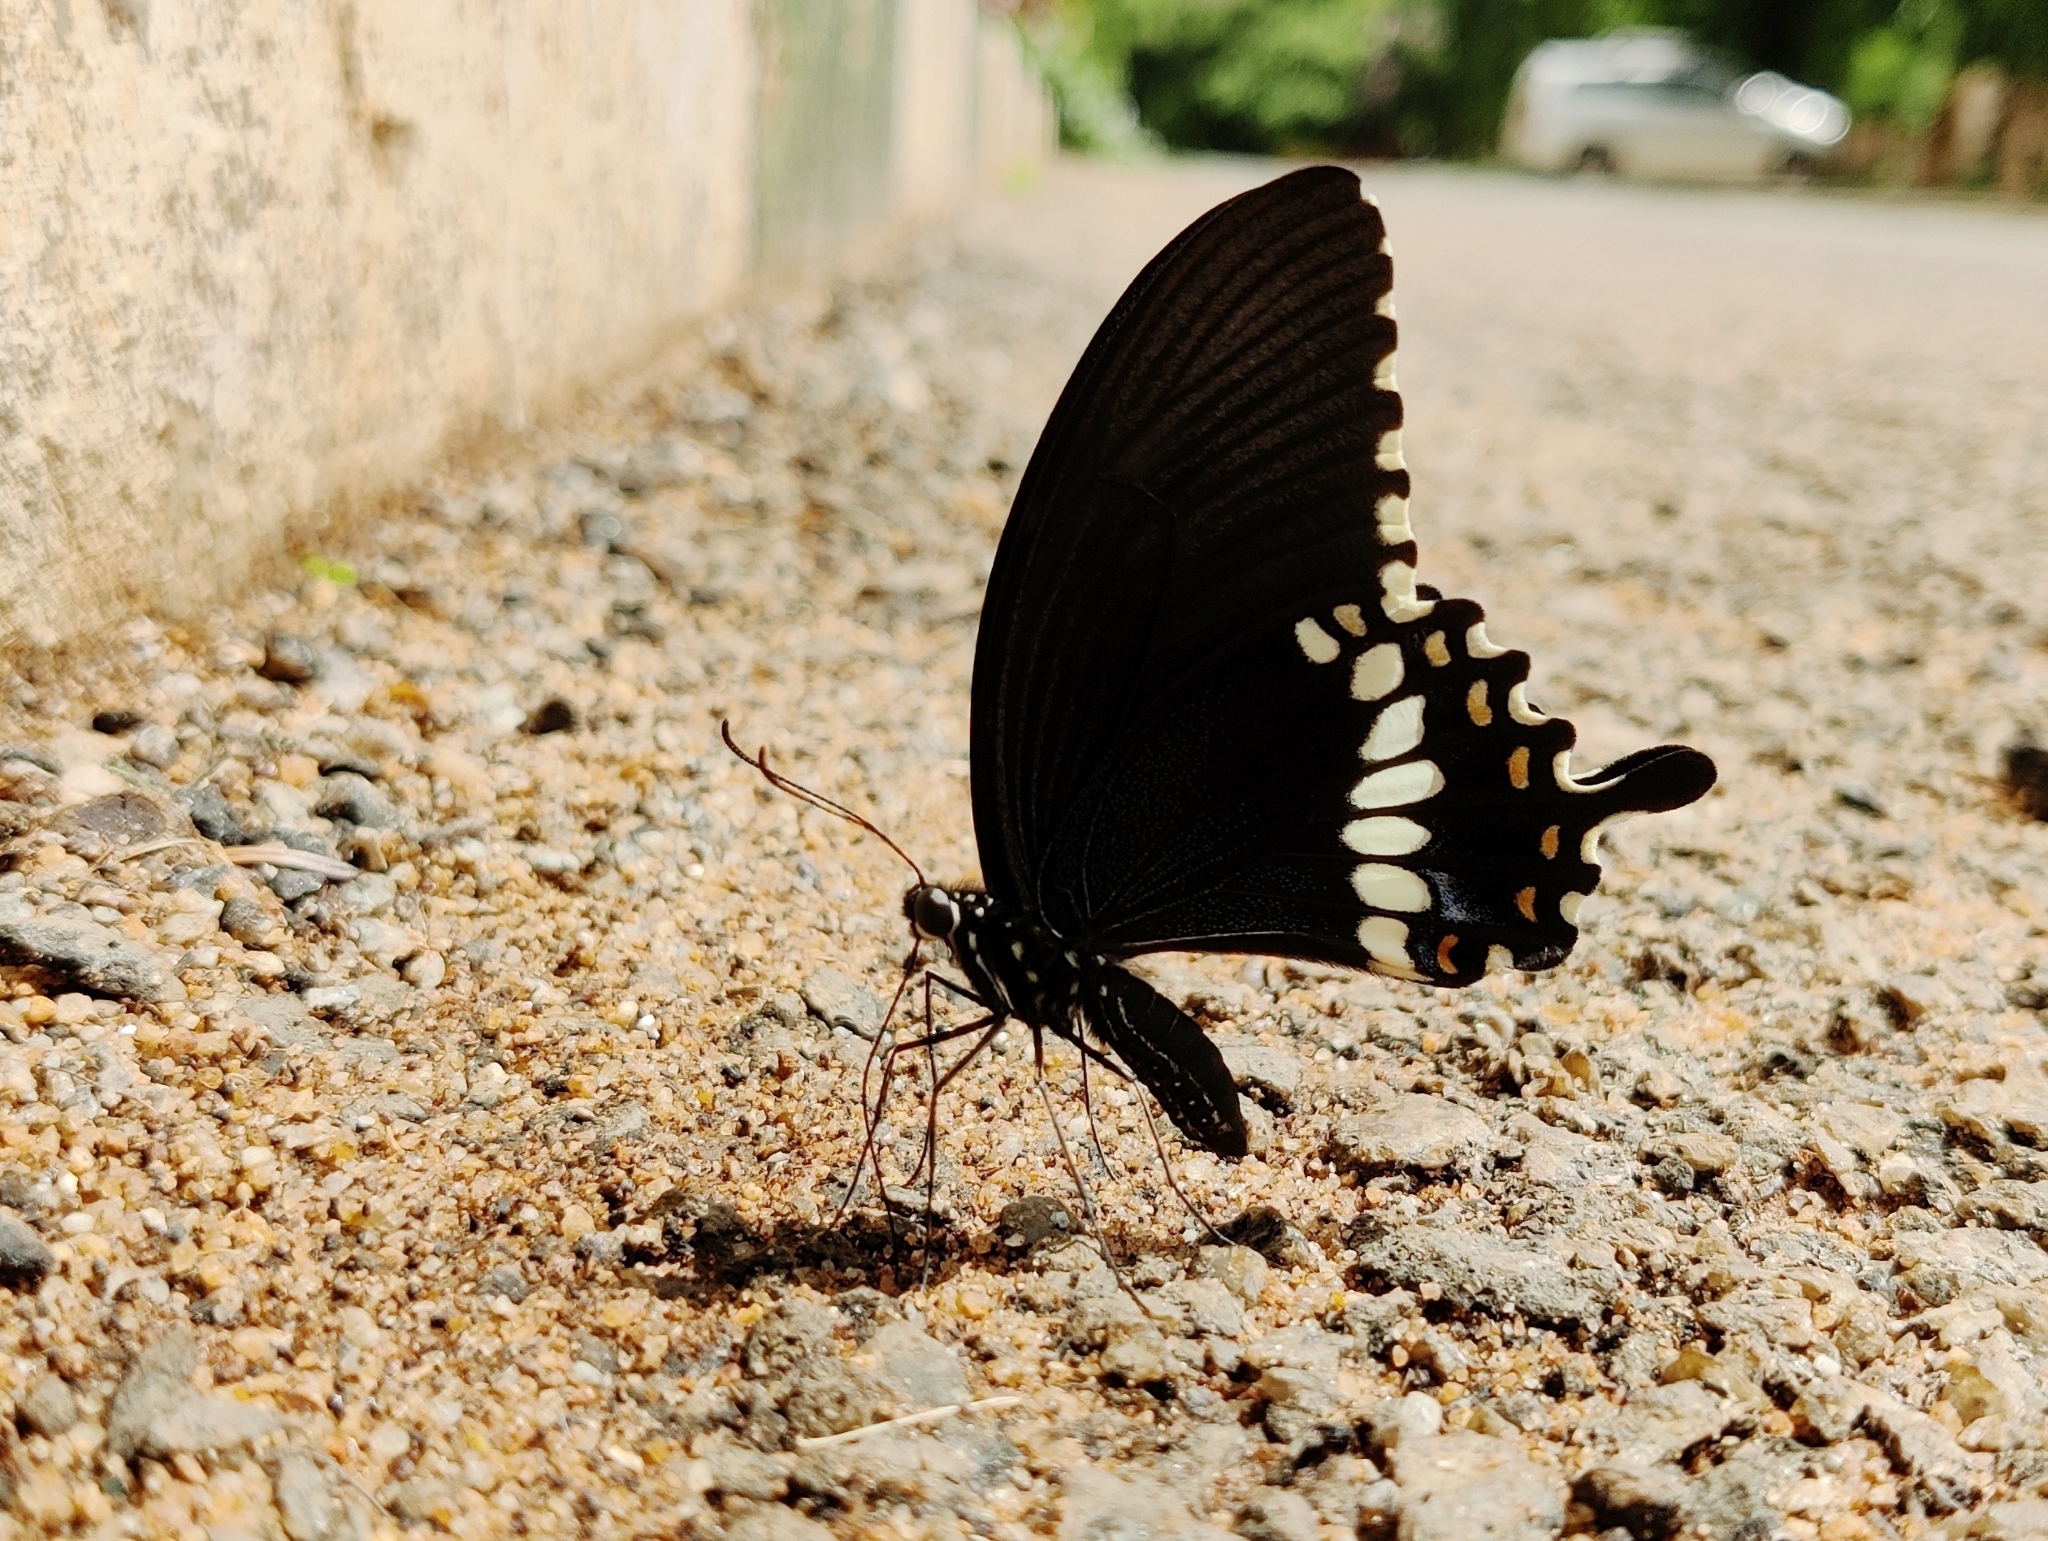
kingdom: Animalia
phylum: Arthropoda
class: Insecta
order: Lepidoptera
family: Papilionidae
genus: Papilio
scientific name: Papilio polytes
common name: Common mormon
